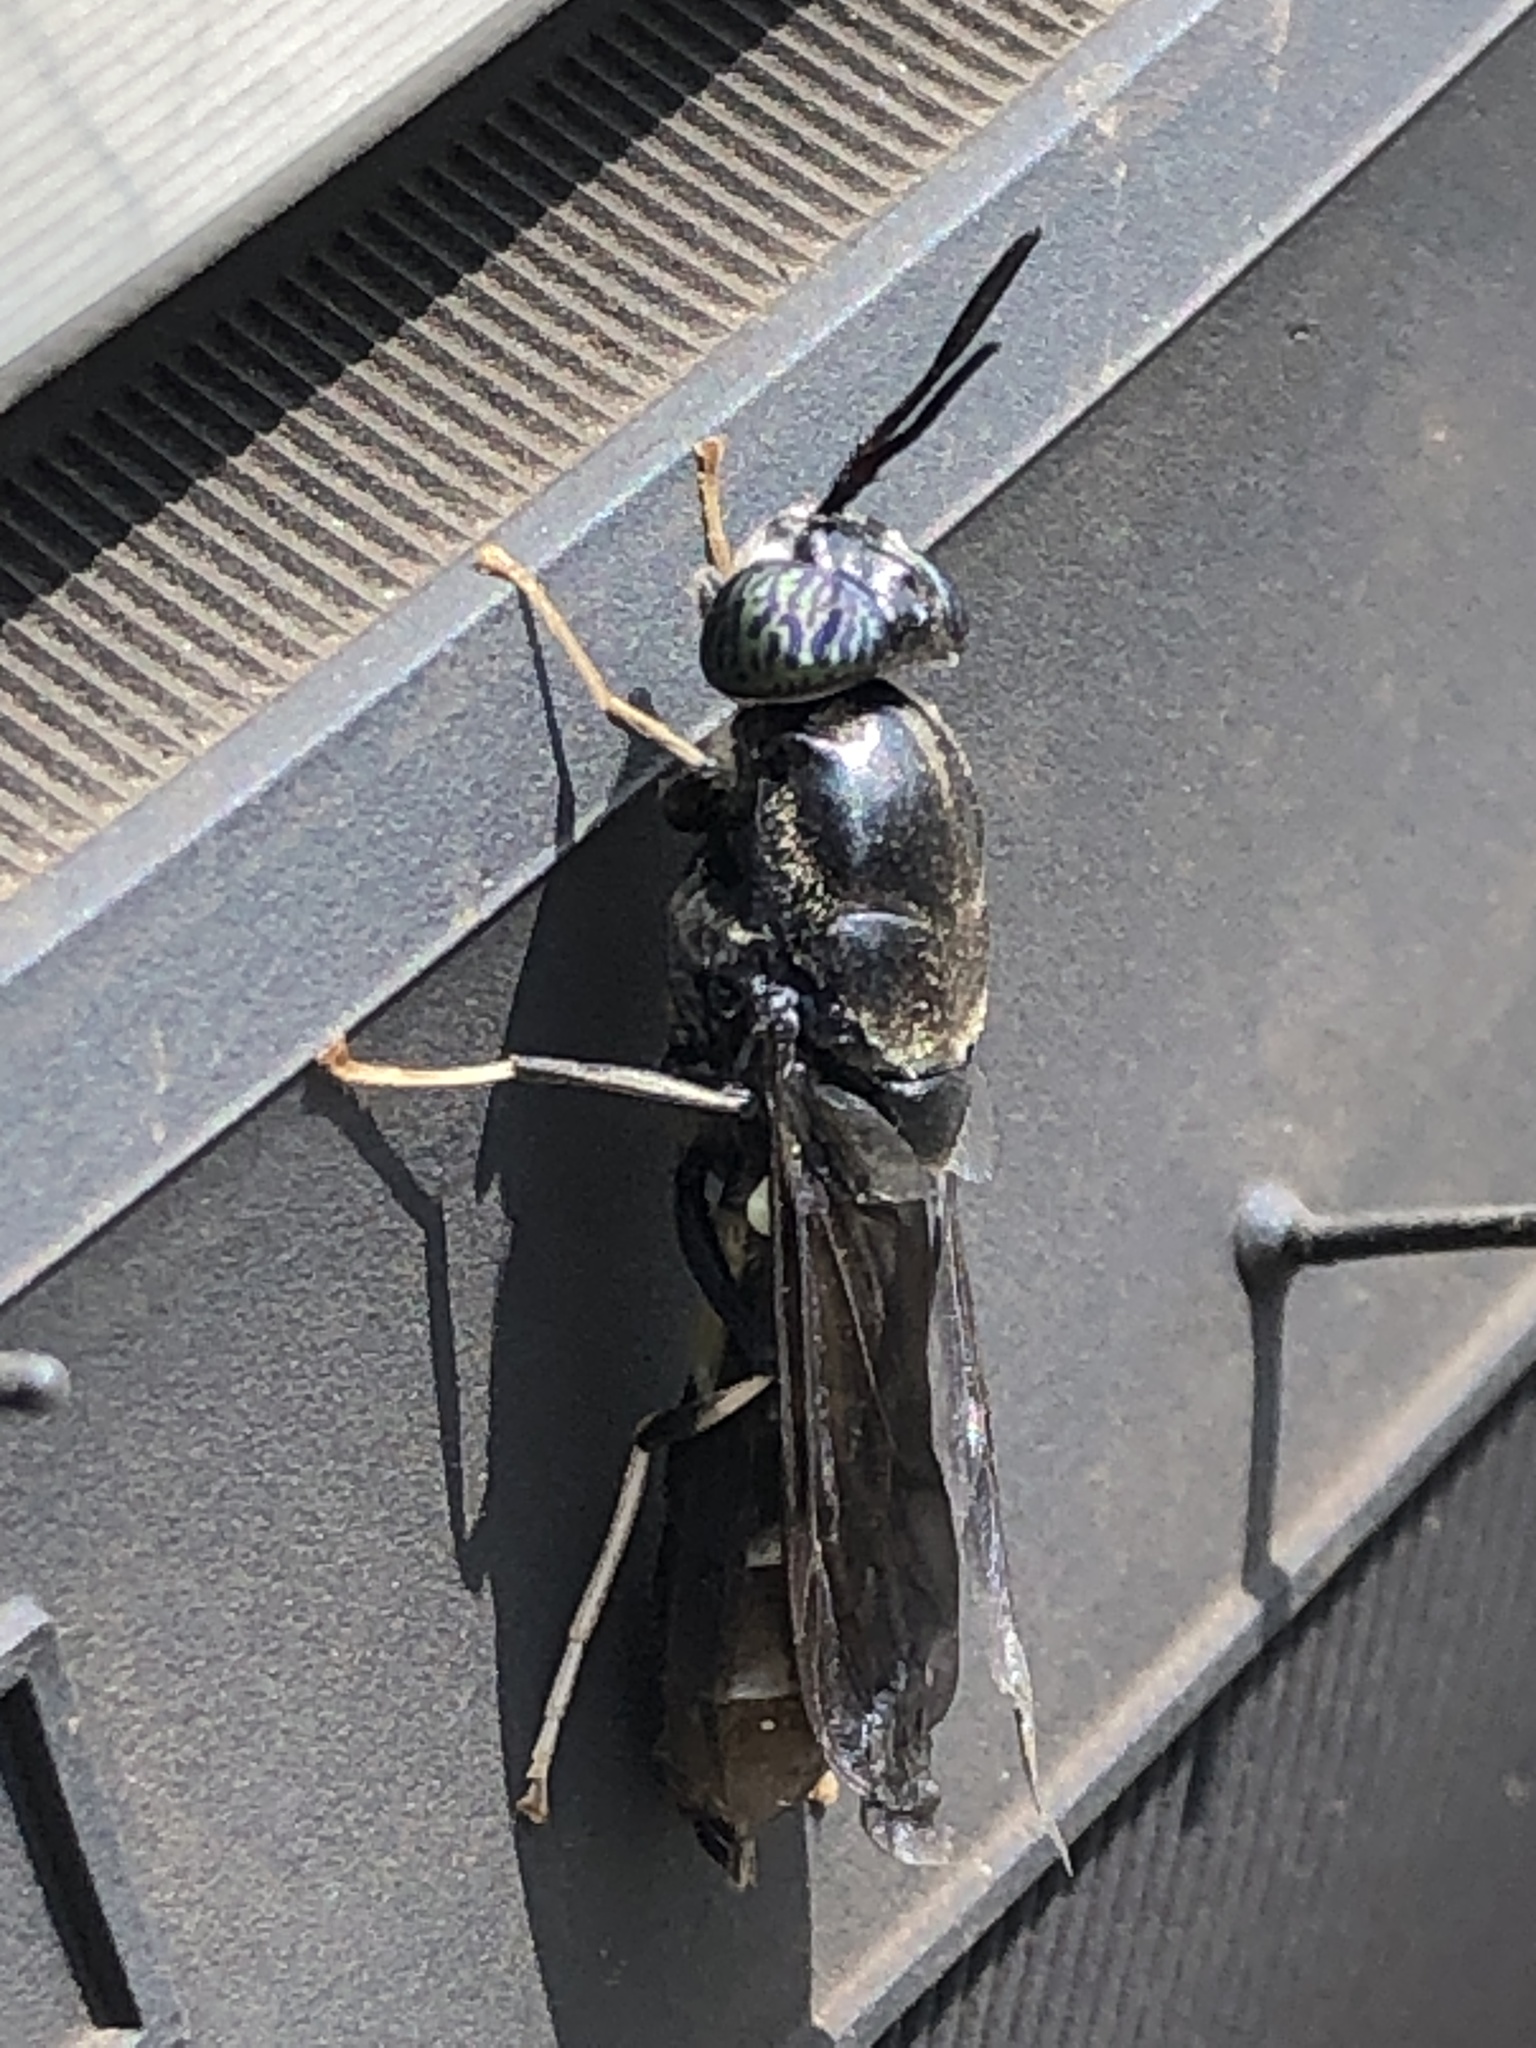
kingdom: Animalia
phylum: Arthropoda
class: Insecta
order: Diptera
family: Stratiomyidae
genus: Hermetia
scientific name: Hermetia illucens
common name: Black soldier fly
